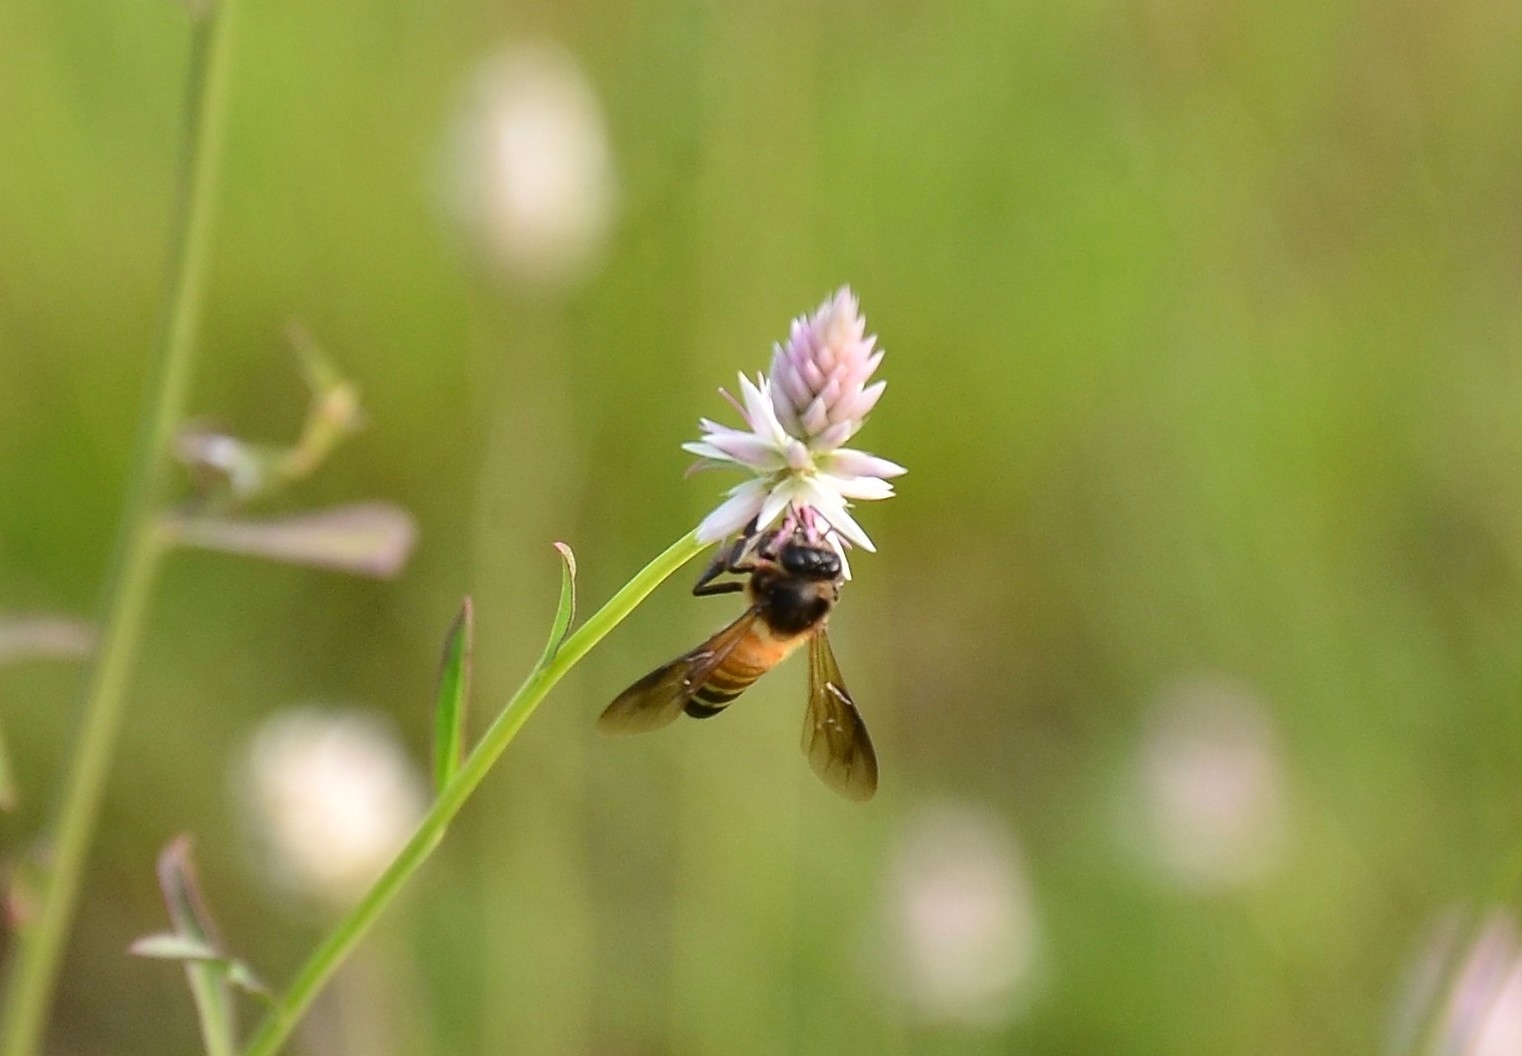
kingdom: Animalia
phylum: Arthropoda
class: Insecta
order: Hymenoptera
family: Apidae
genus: Apis
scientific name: Apis dorsata
